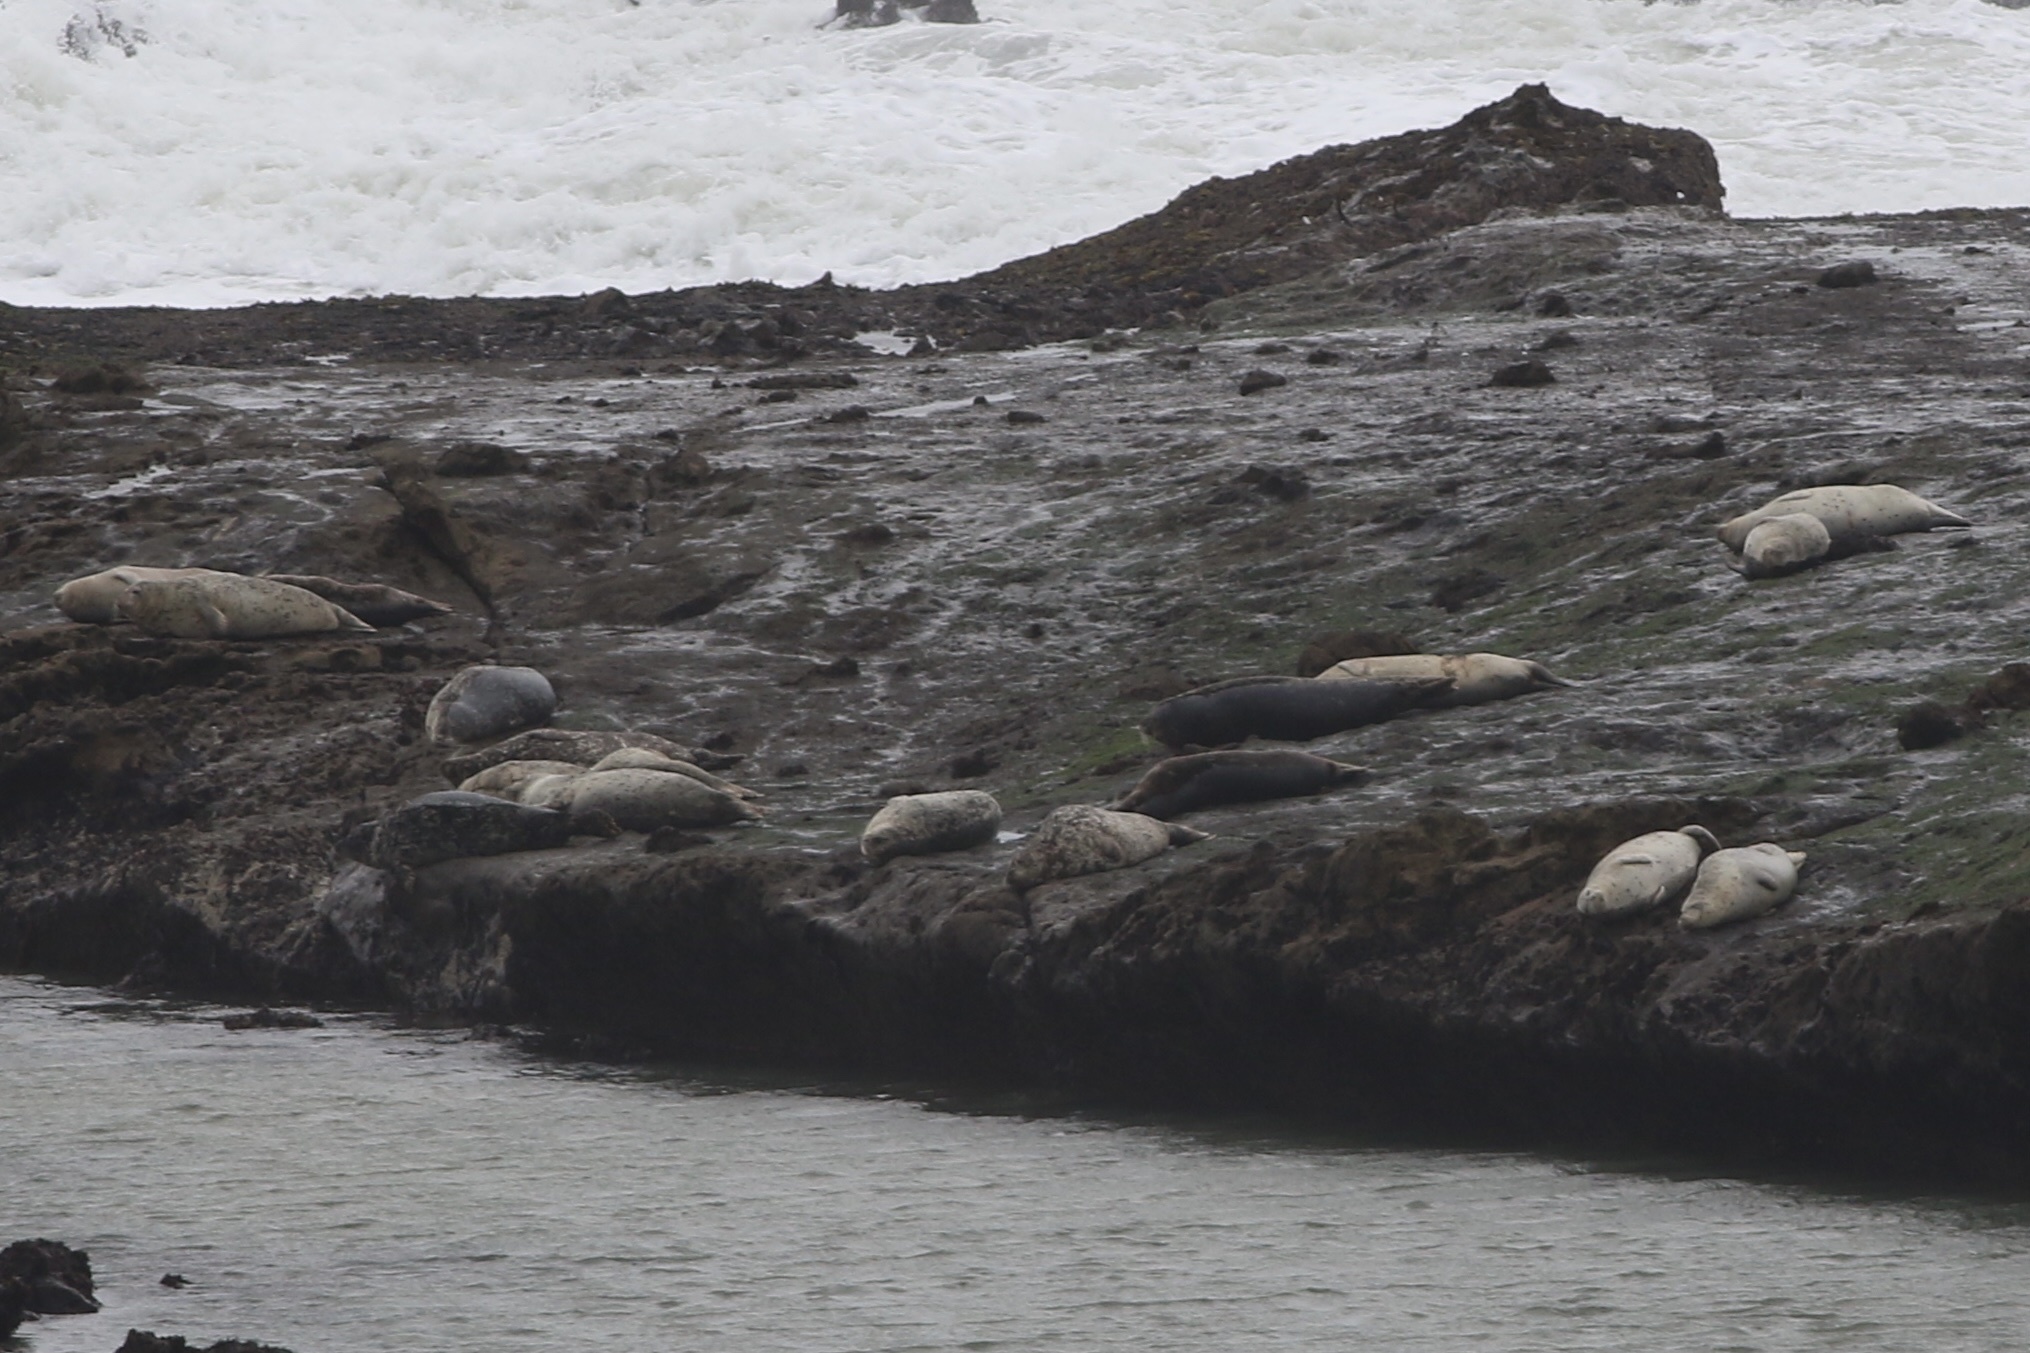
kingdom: Animalia
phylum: Chordata
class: Mammalia
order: Carnivora
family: Phocidae
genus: Phoca
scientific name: Phoca vitulina
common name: Harbor seal
